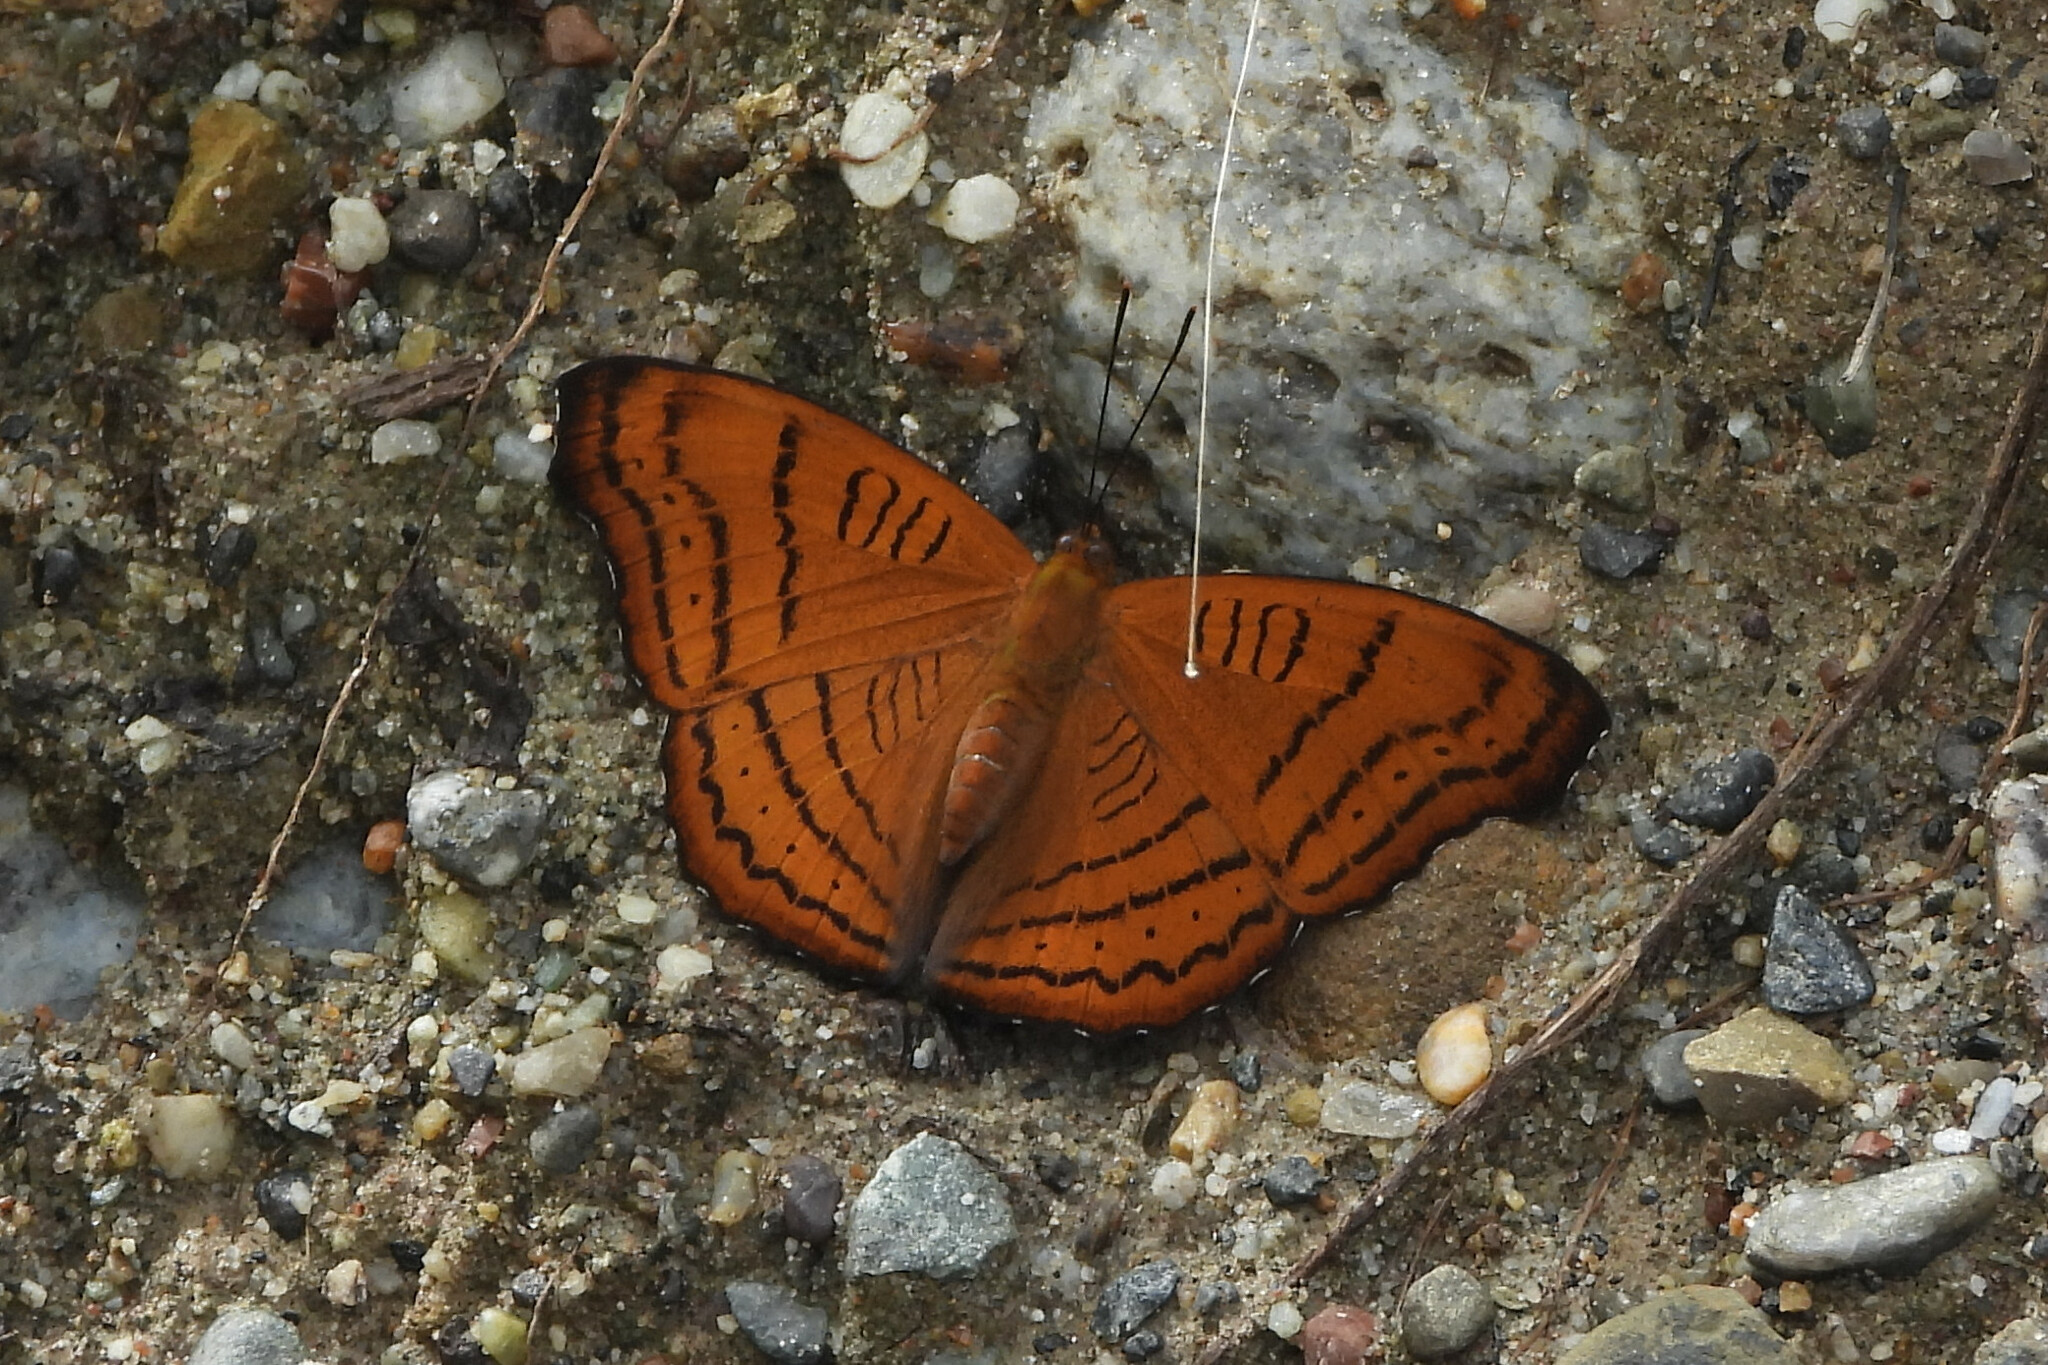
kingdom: Animalia
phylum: Arthropoda
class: Insecta
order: Lepidoptera
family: Nymphalidae
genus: Pseudergolis
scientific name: Pseudergolis wedah
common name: Tabby
